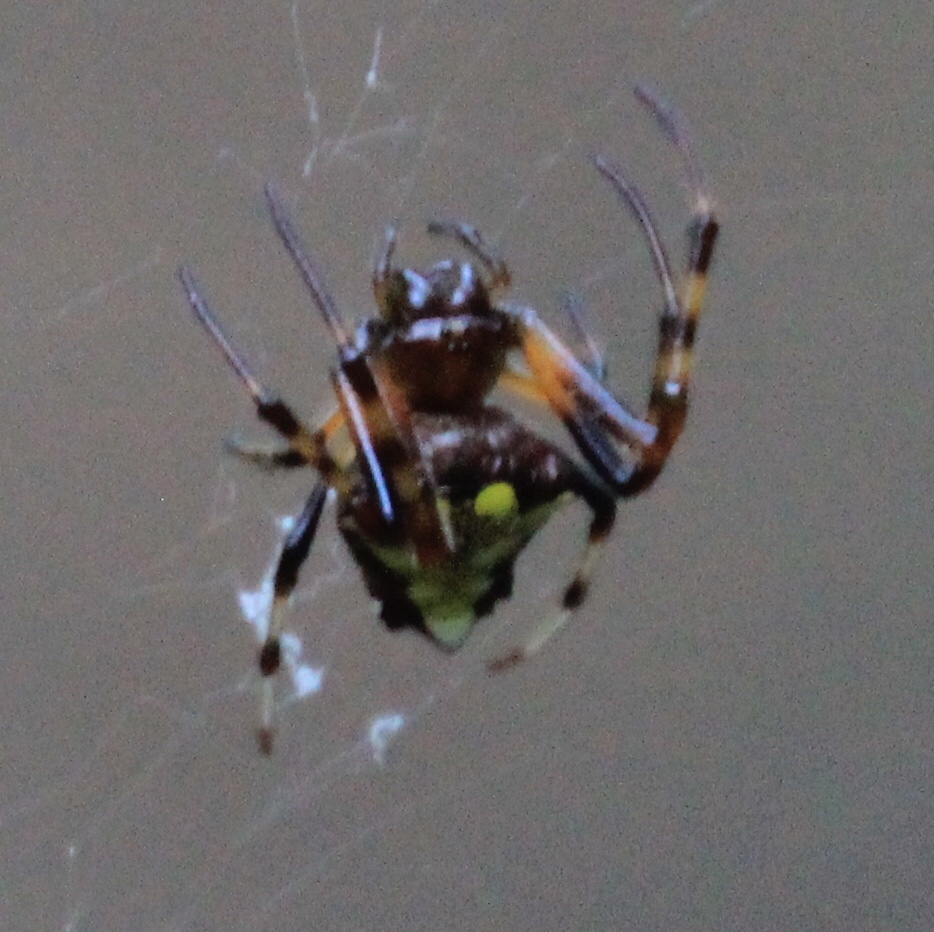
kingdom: Animalia
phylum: Arthropoda
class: Arachnida
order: Araneae
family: Araneidae
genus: Verrucosa
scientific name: Verrucosa arenata
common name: Orb weavers
